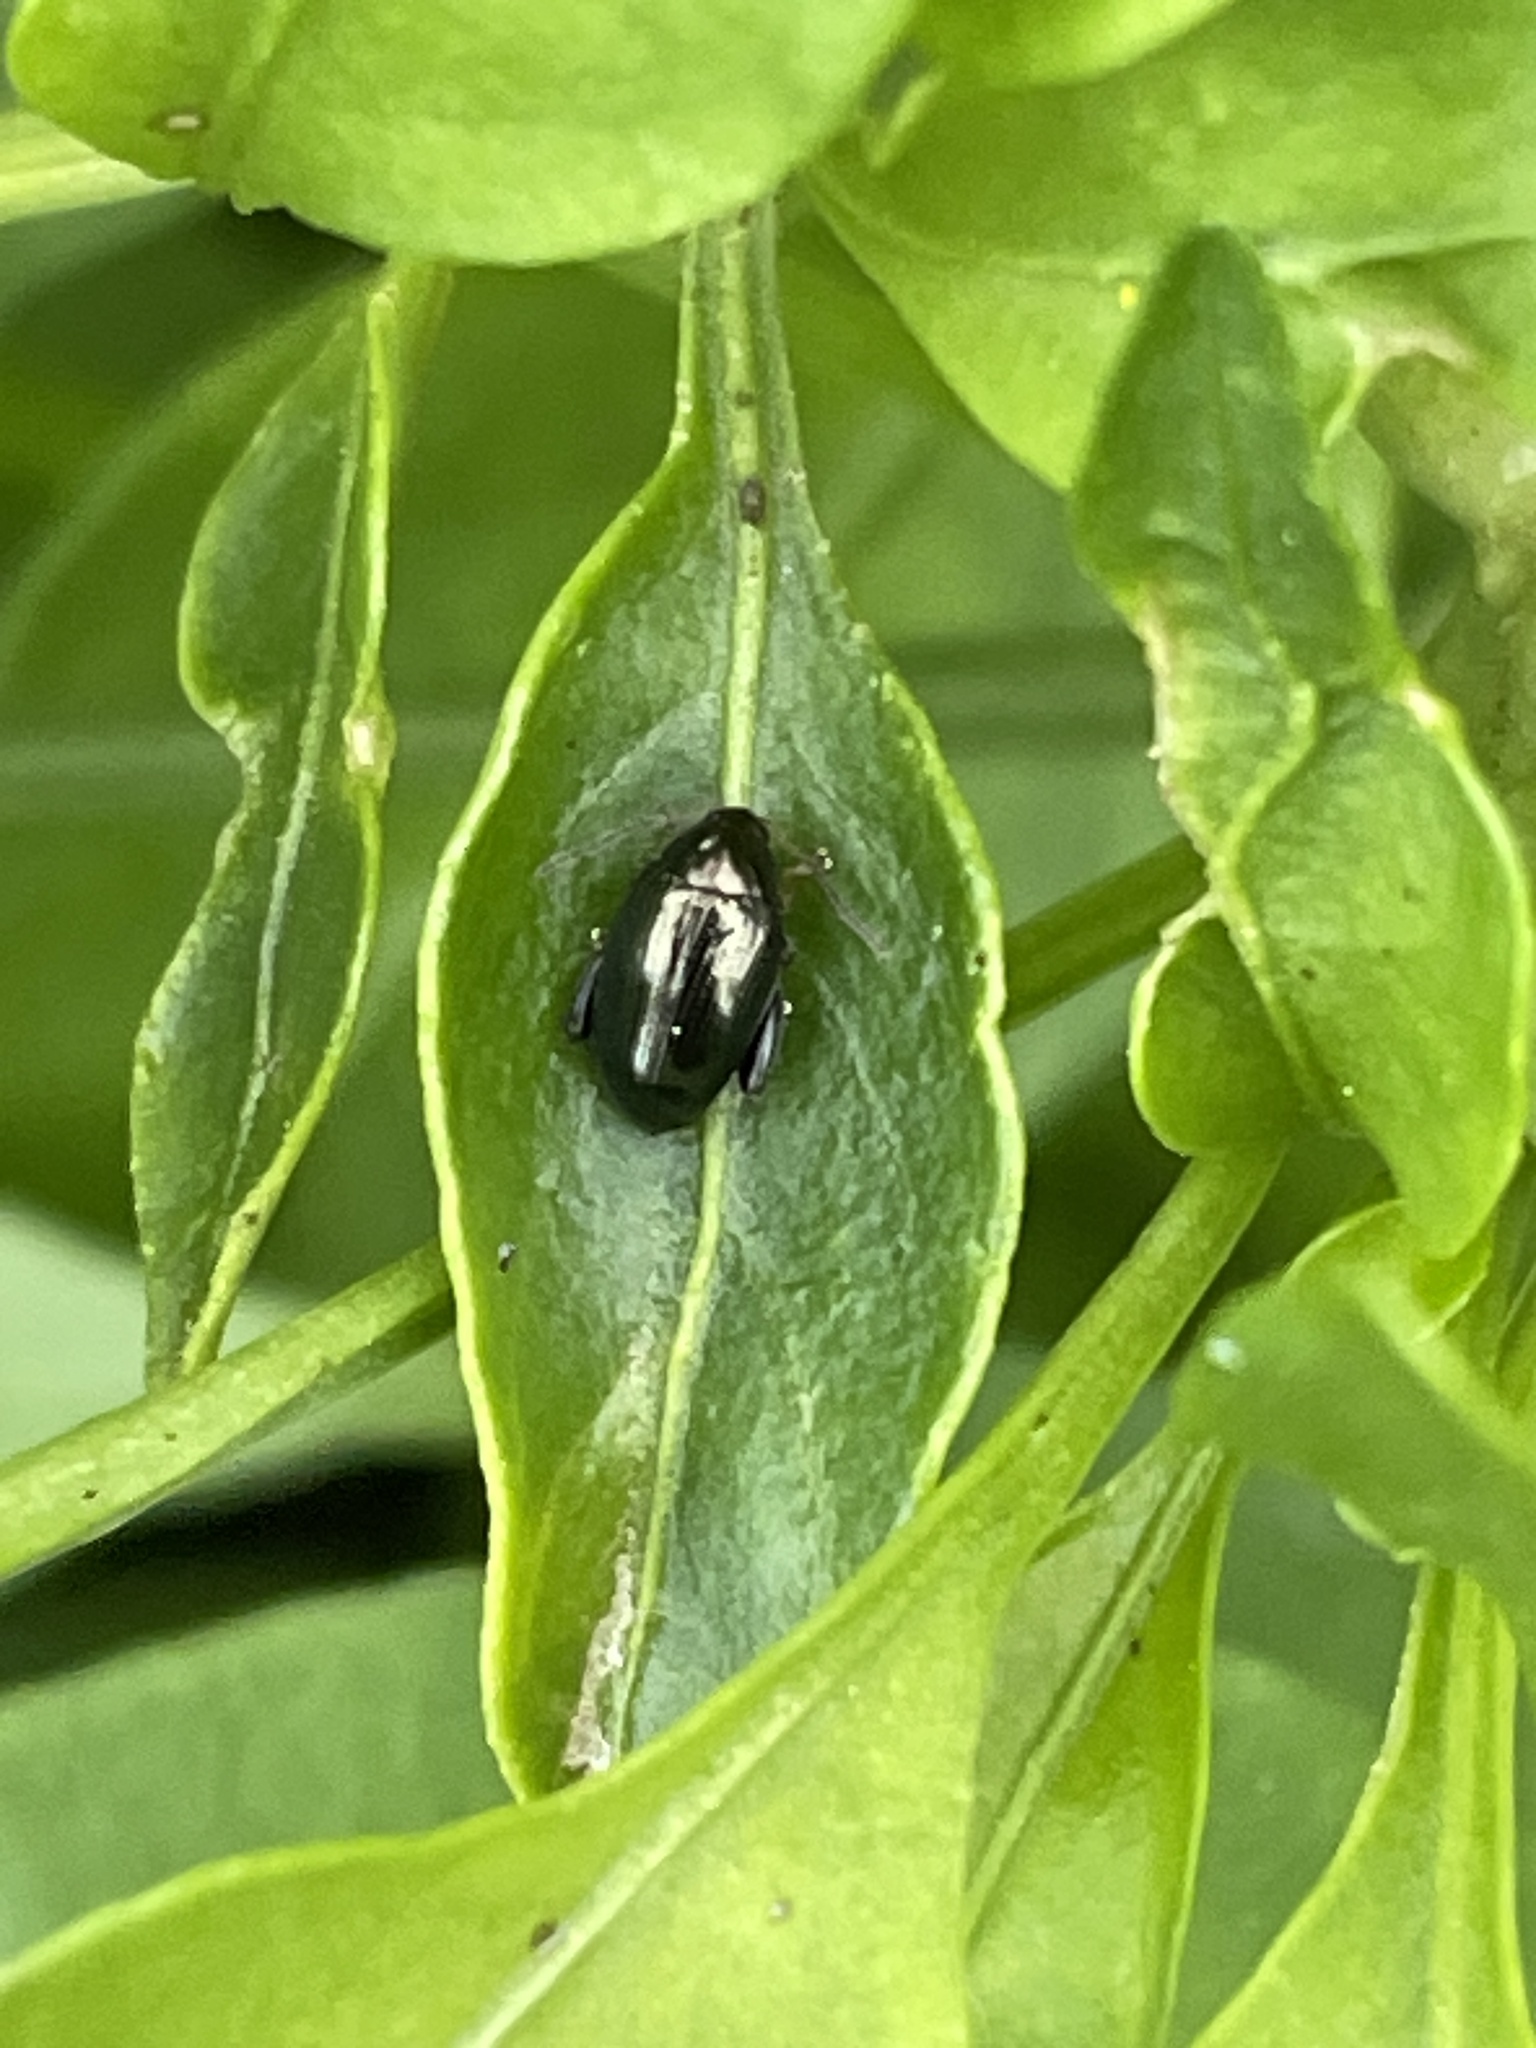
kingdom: Animalia
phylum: Arthropoda
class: Insecta
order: Coleoptera
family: Chrysomelidae
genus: Psylliodes
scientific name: Psylliodes chrysocephalus
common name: Cabbage-stem flea beetle
